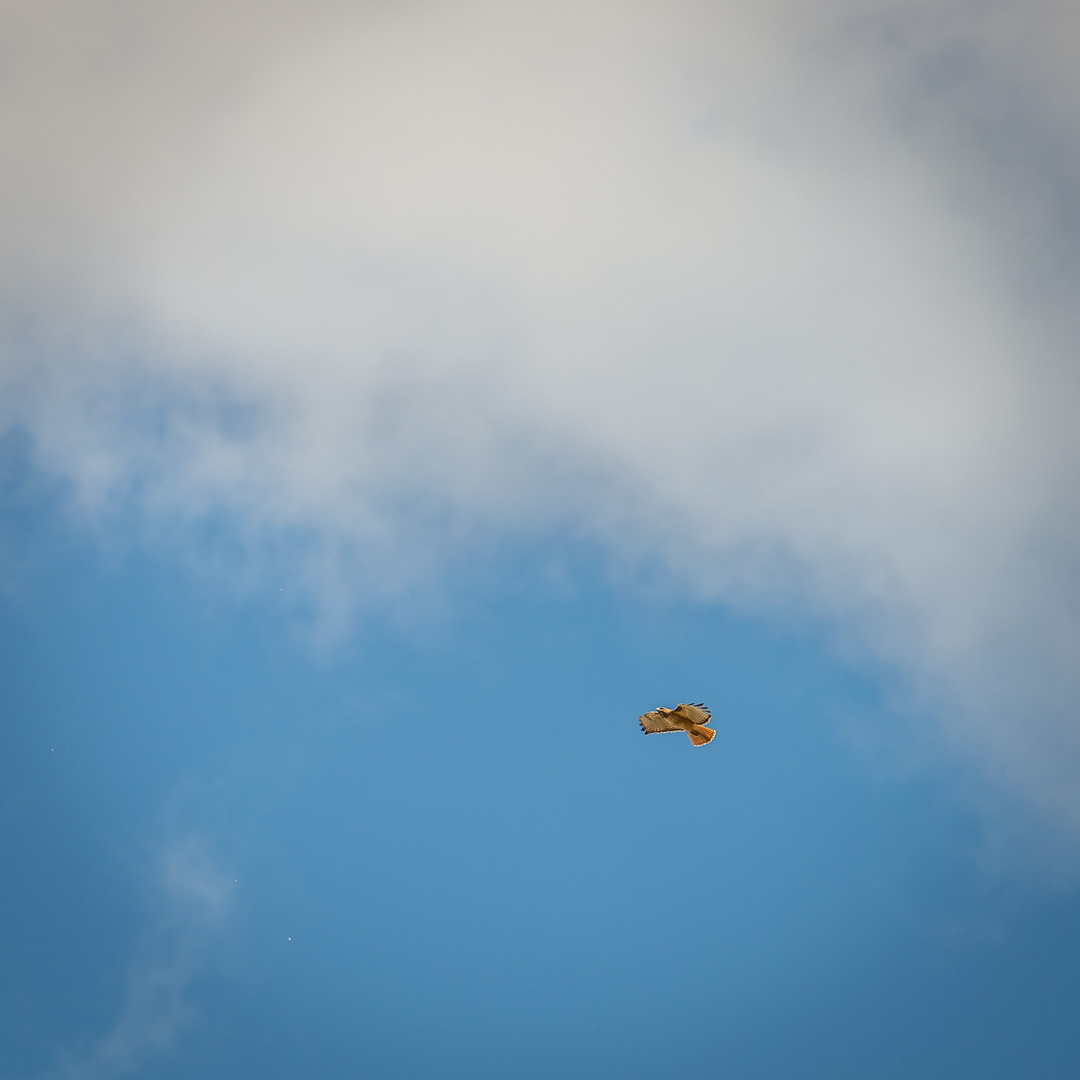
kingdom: Animalia
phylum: Chordata
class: Aves
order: Accipitriformes
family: Accipitridae
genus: Buteo
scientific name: Buteo jamaicensis
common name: Red-tailed hawk
